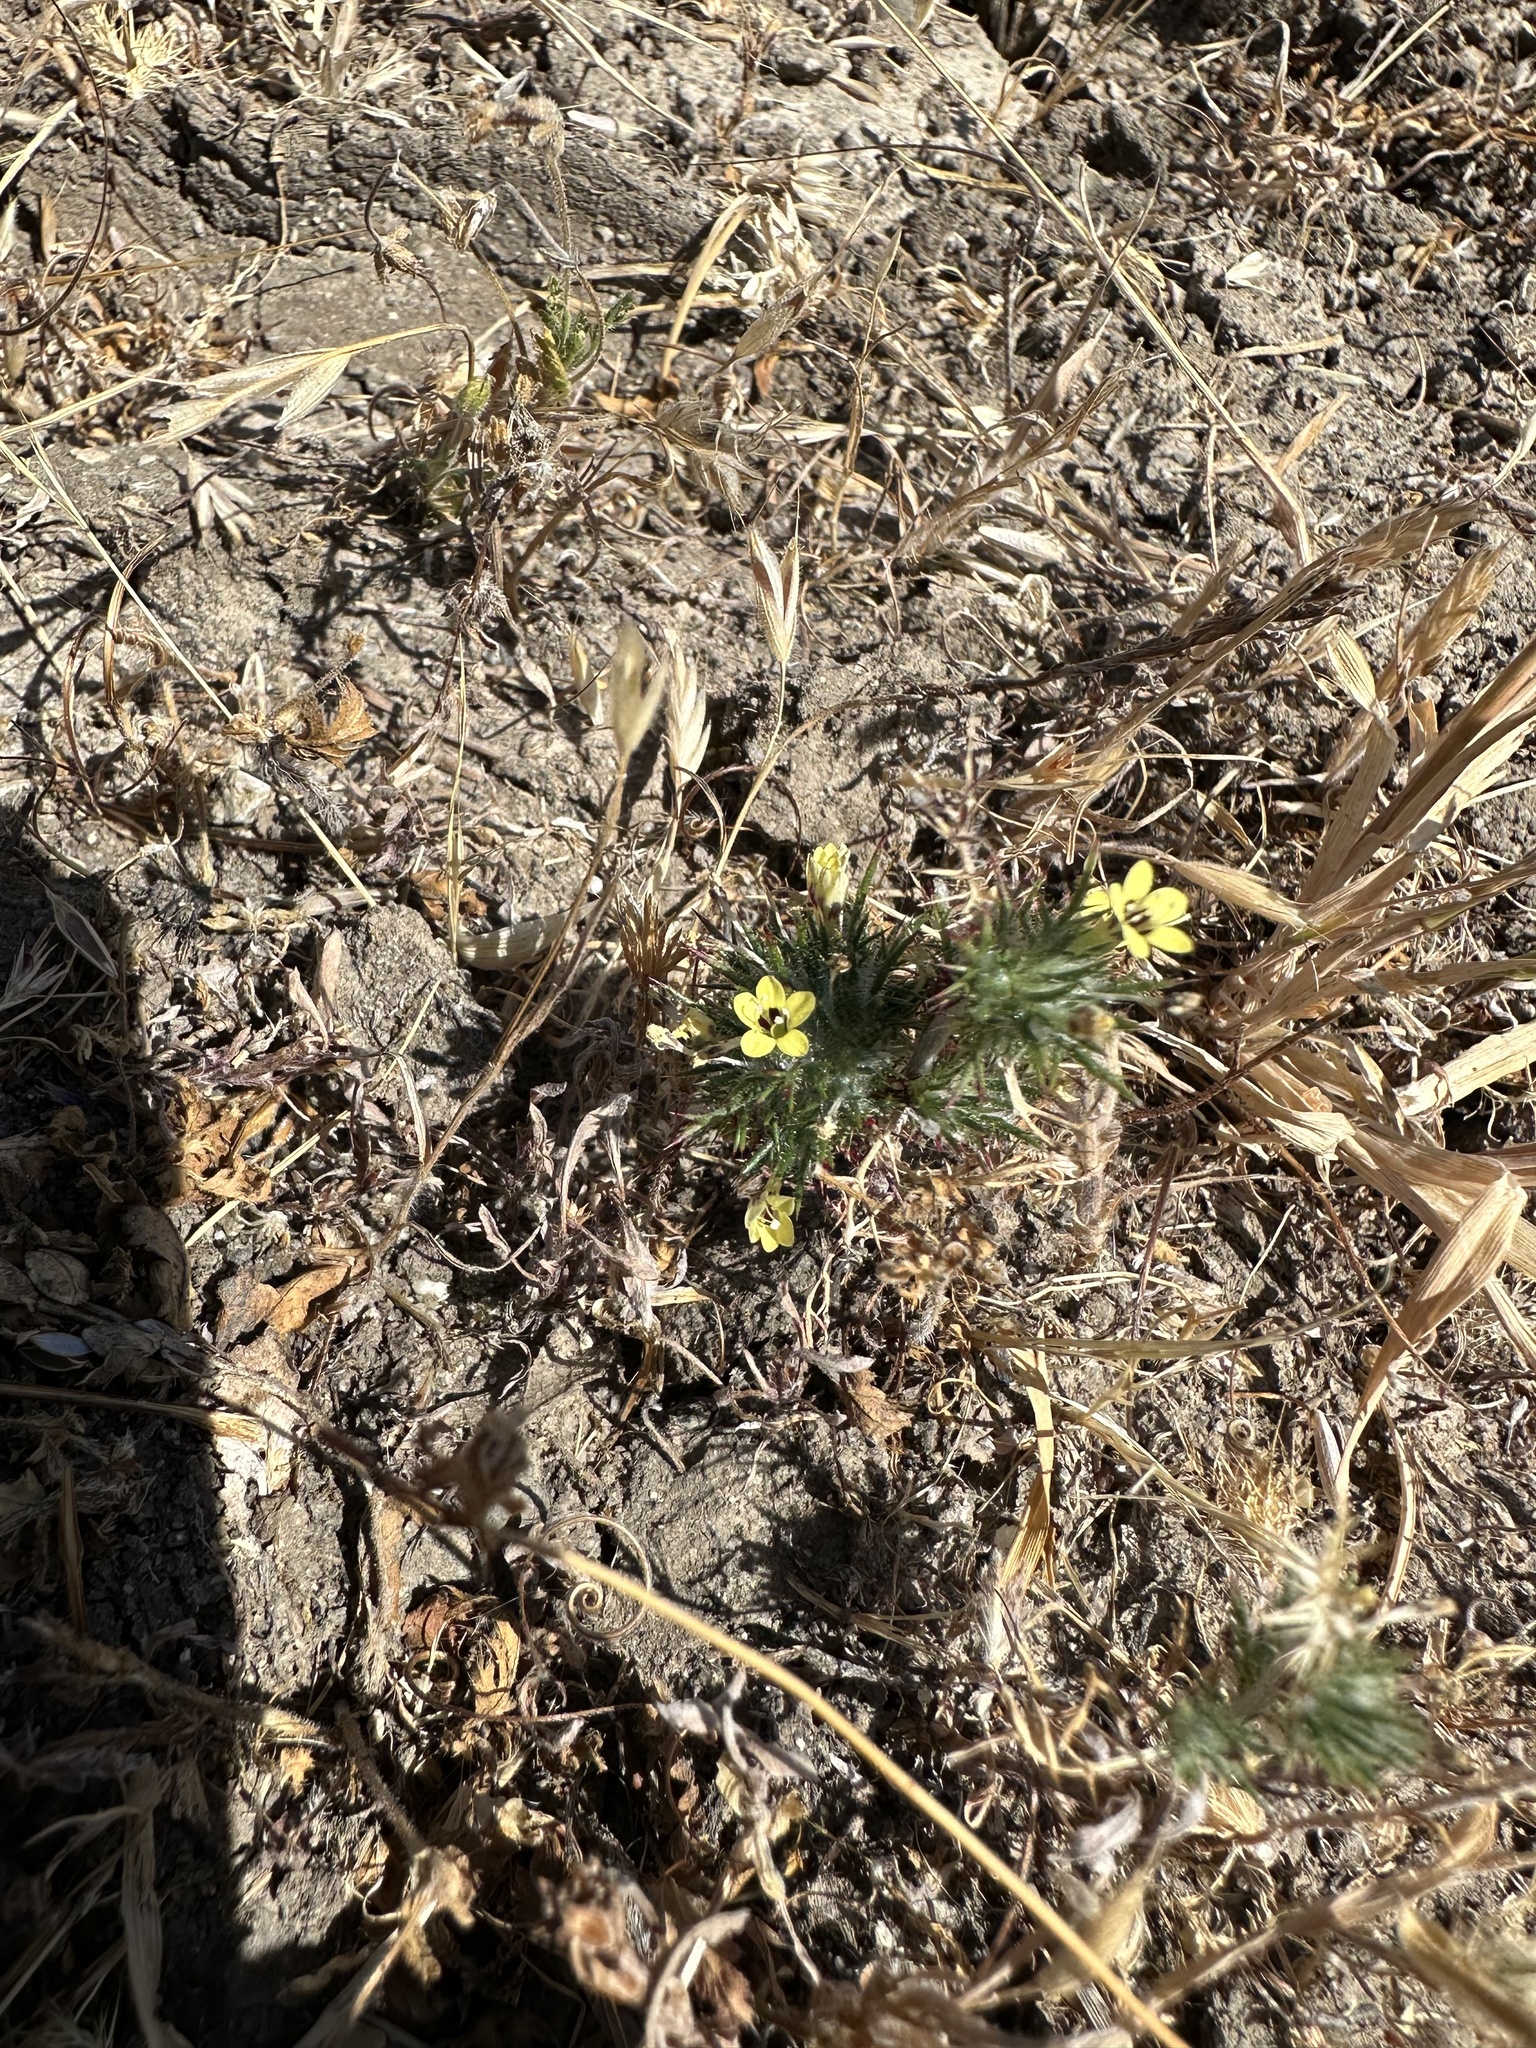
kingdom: Plantae
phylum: Tracheophyta
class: Magnoliopsida
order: Ericales
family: Polemoniaceae
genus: Navarretia
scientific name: Navarretia nigelliformis
